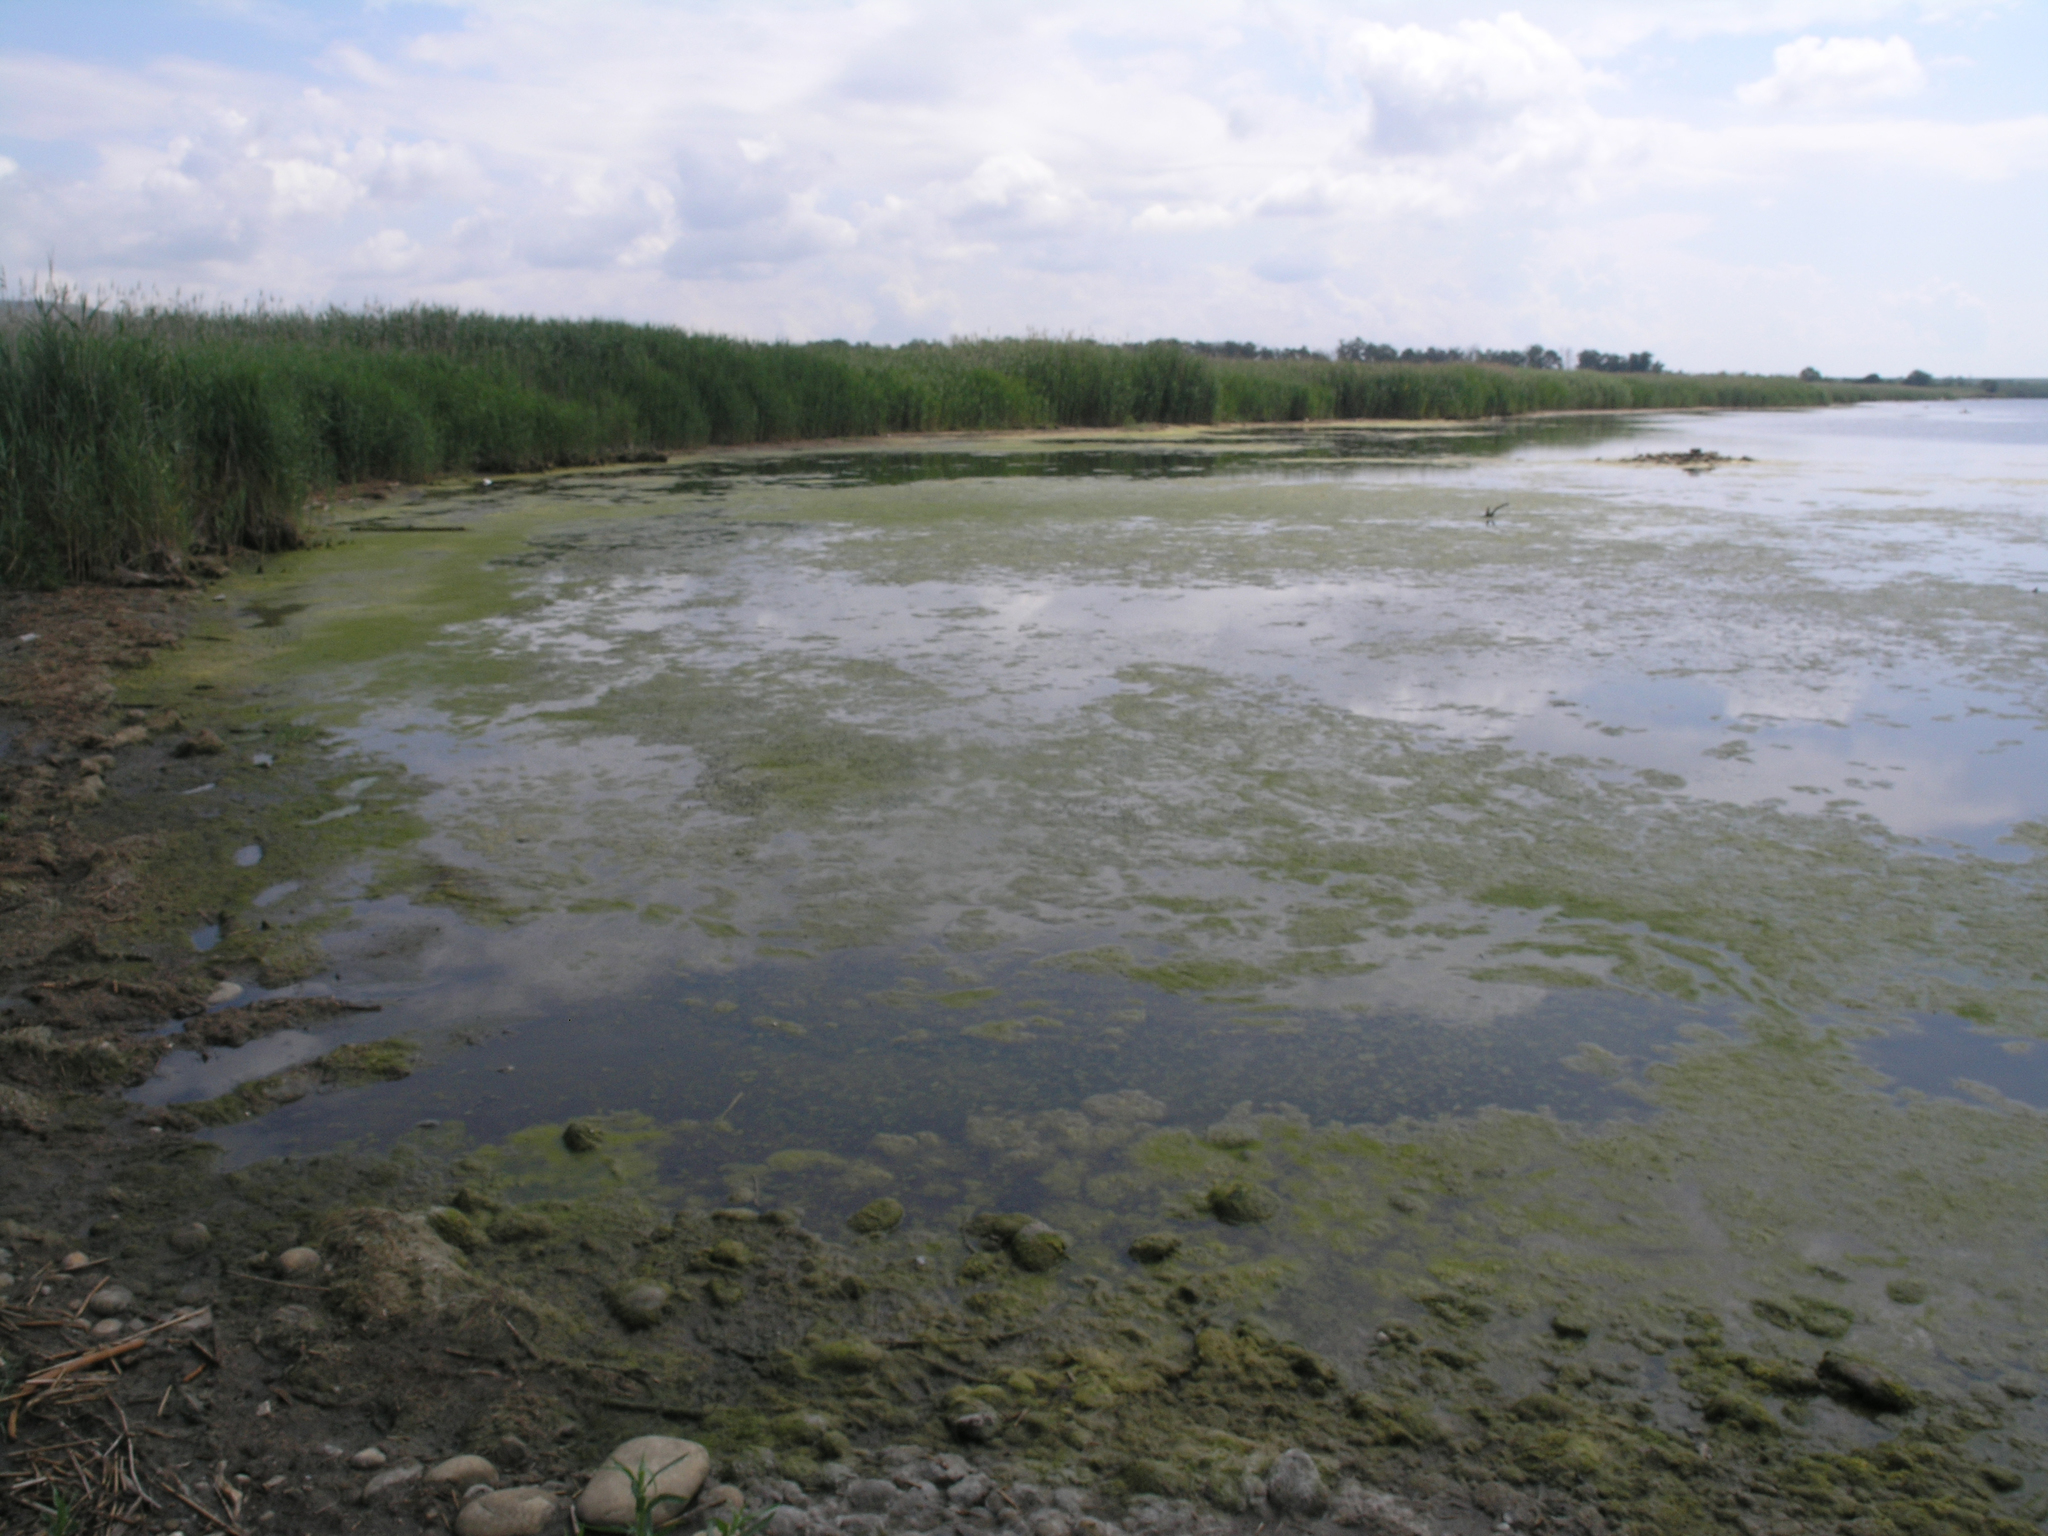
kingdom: Plantae
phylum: Tracheophyta
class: Liliopsida
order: Poales
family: Poaceae
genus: Phragmites
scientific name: Phragmites australis
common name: Common reed
